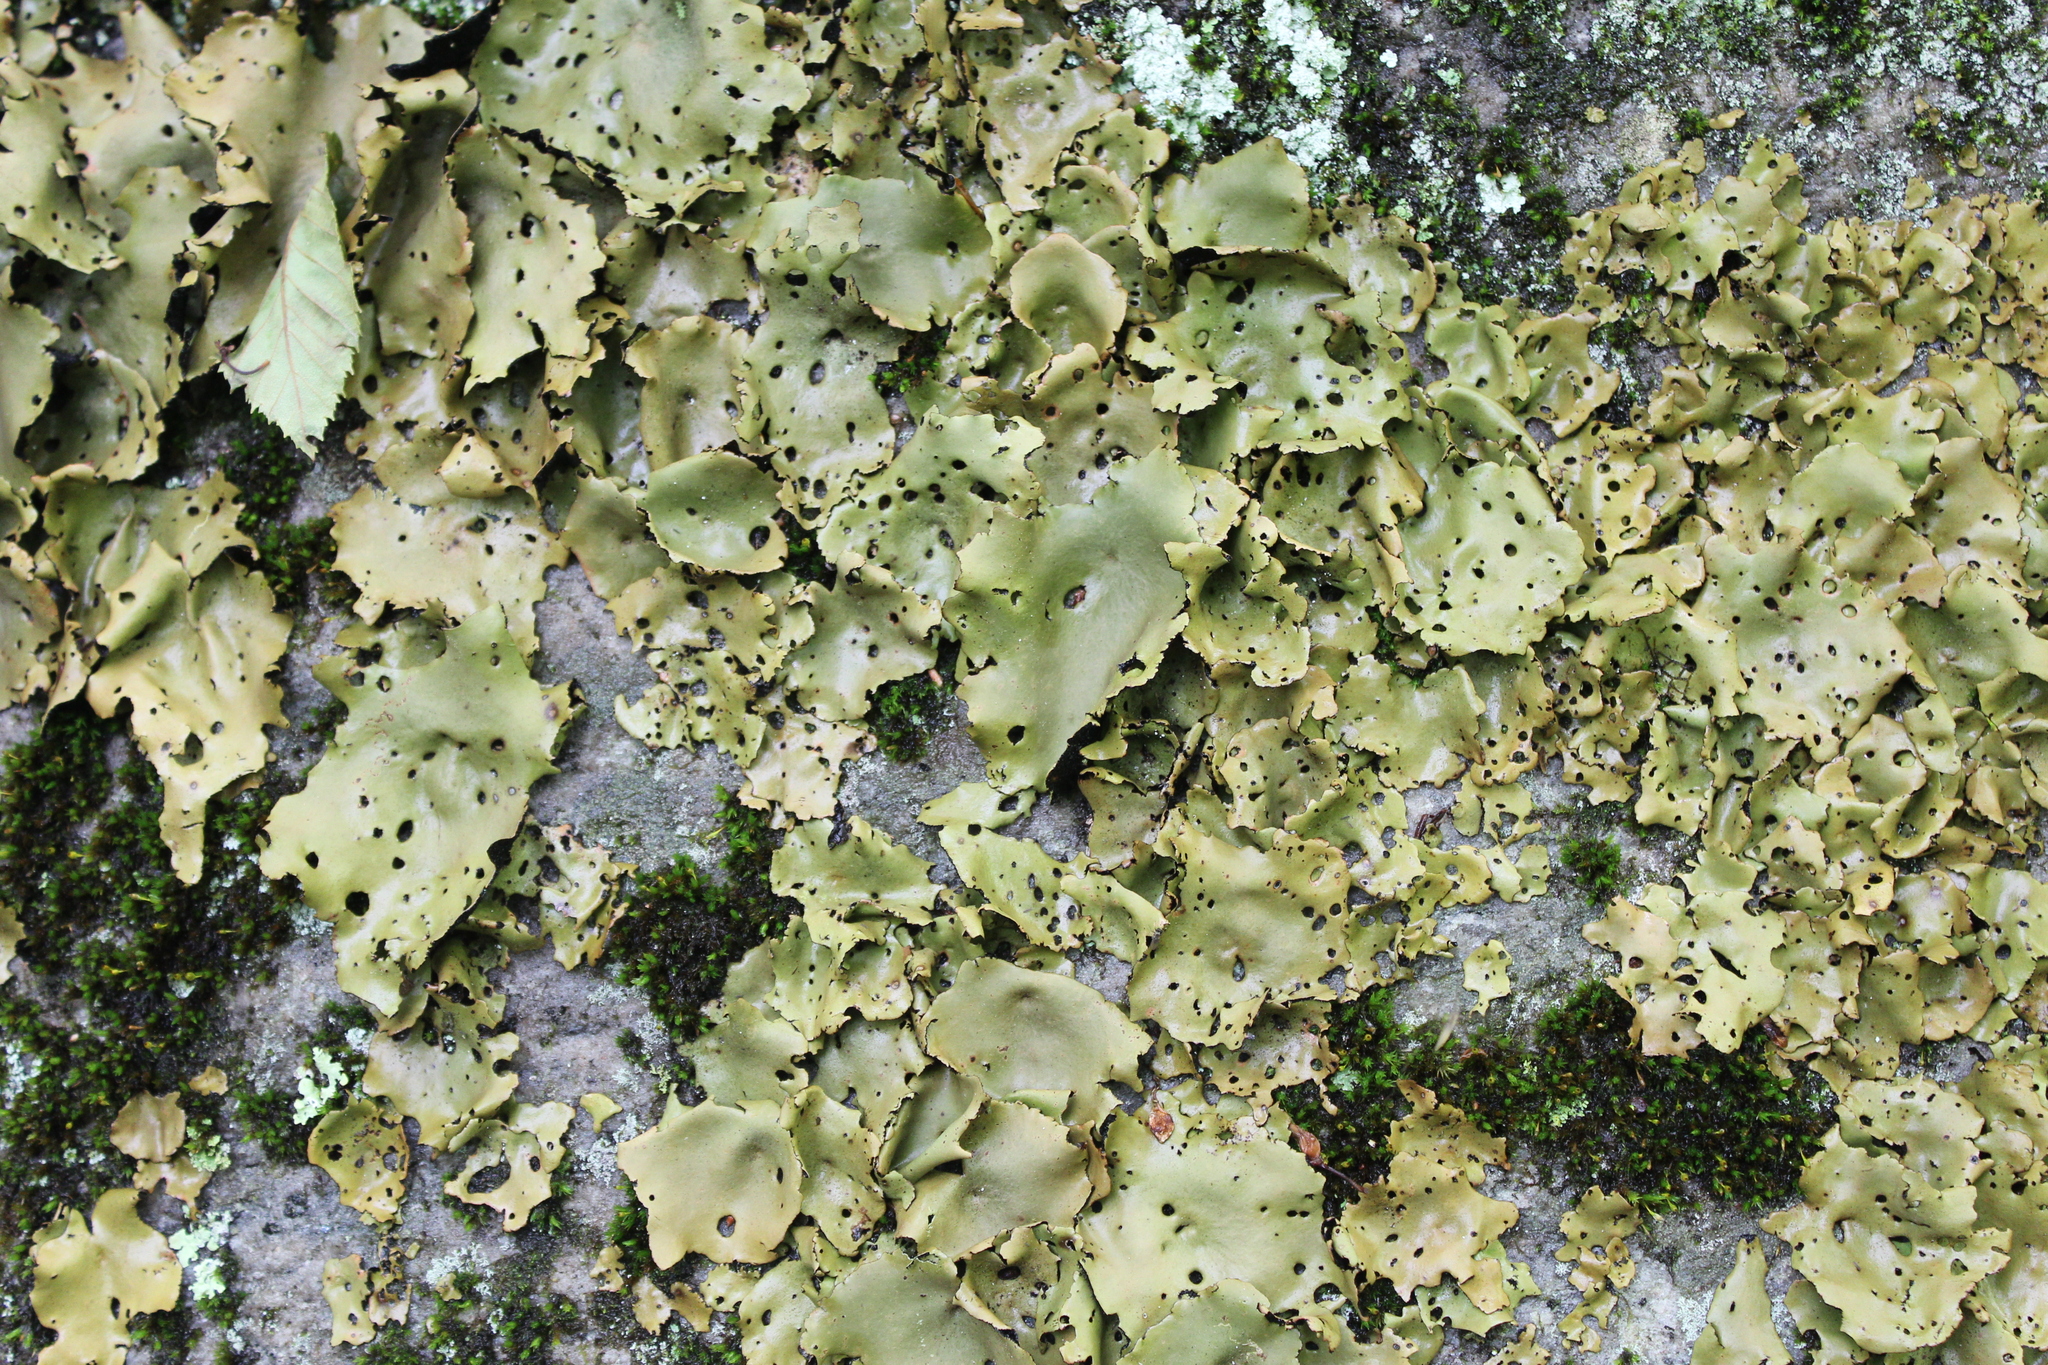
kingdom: Fungi
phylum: Ascomycota
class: Lecanoromycetes
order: Umbilicariales
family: Umbilicariaceae
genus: Umbilicaria
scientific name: Umbilicaria mammulata
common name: Smooth rock tripe
